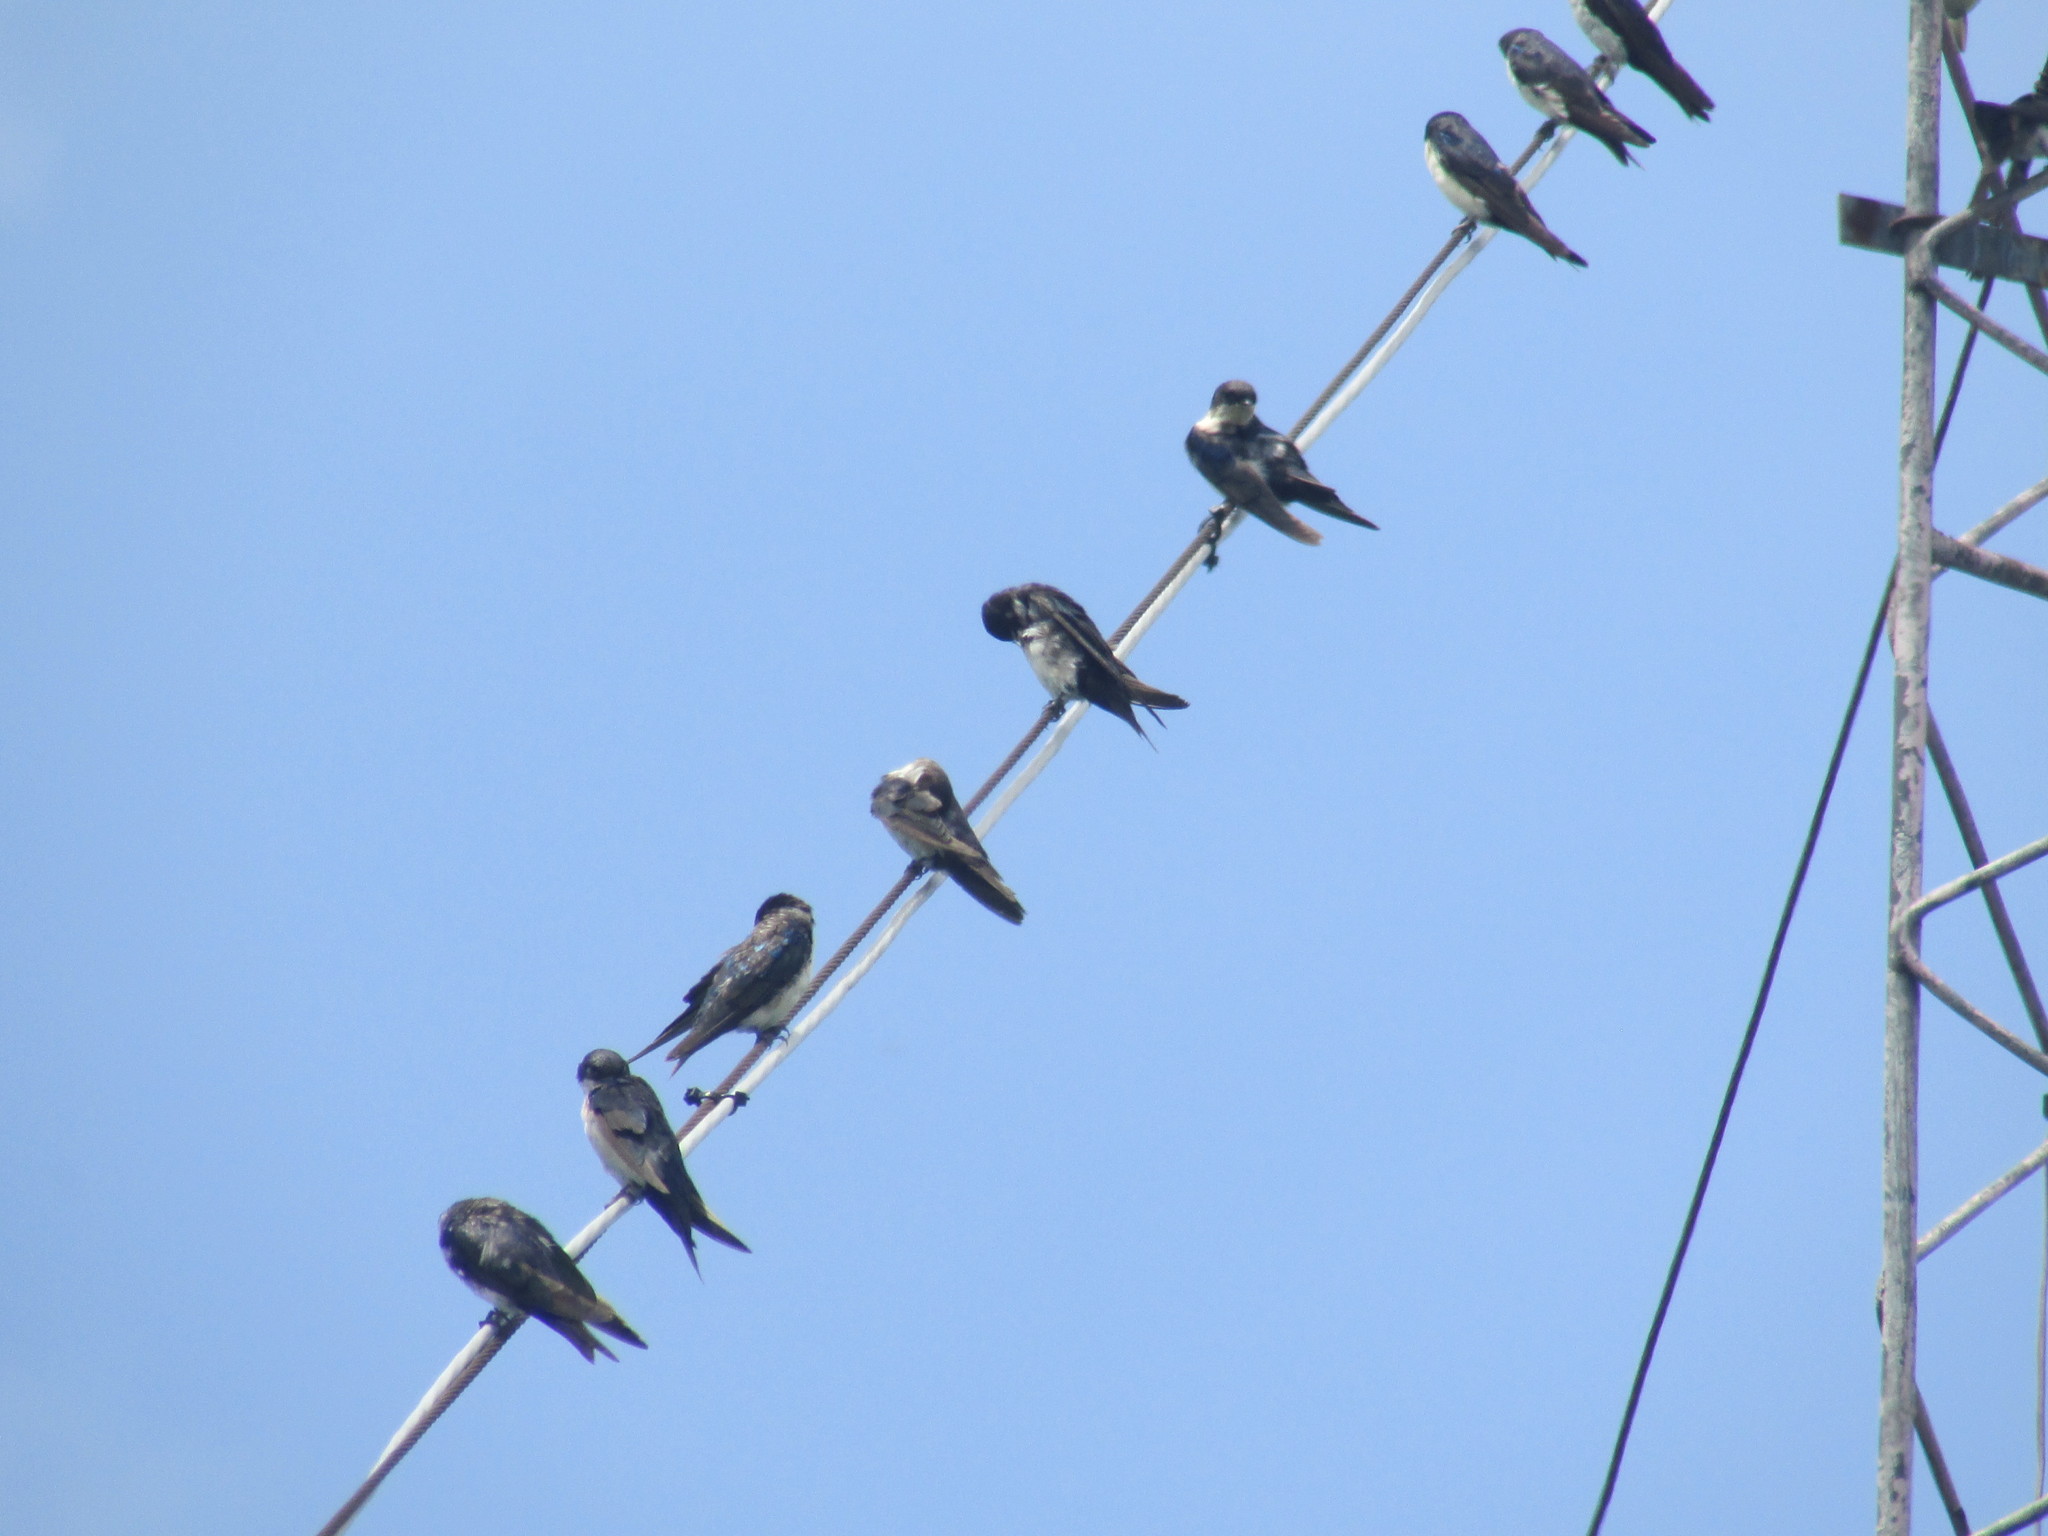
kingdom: Animalia
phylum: Chordata
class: Aves
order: Passeriformes
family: Hirundinidae
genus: Notiochelidon
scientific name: Notiochelidon cyanoleuca
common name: Blue-and-white swallow
